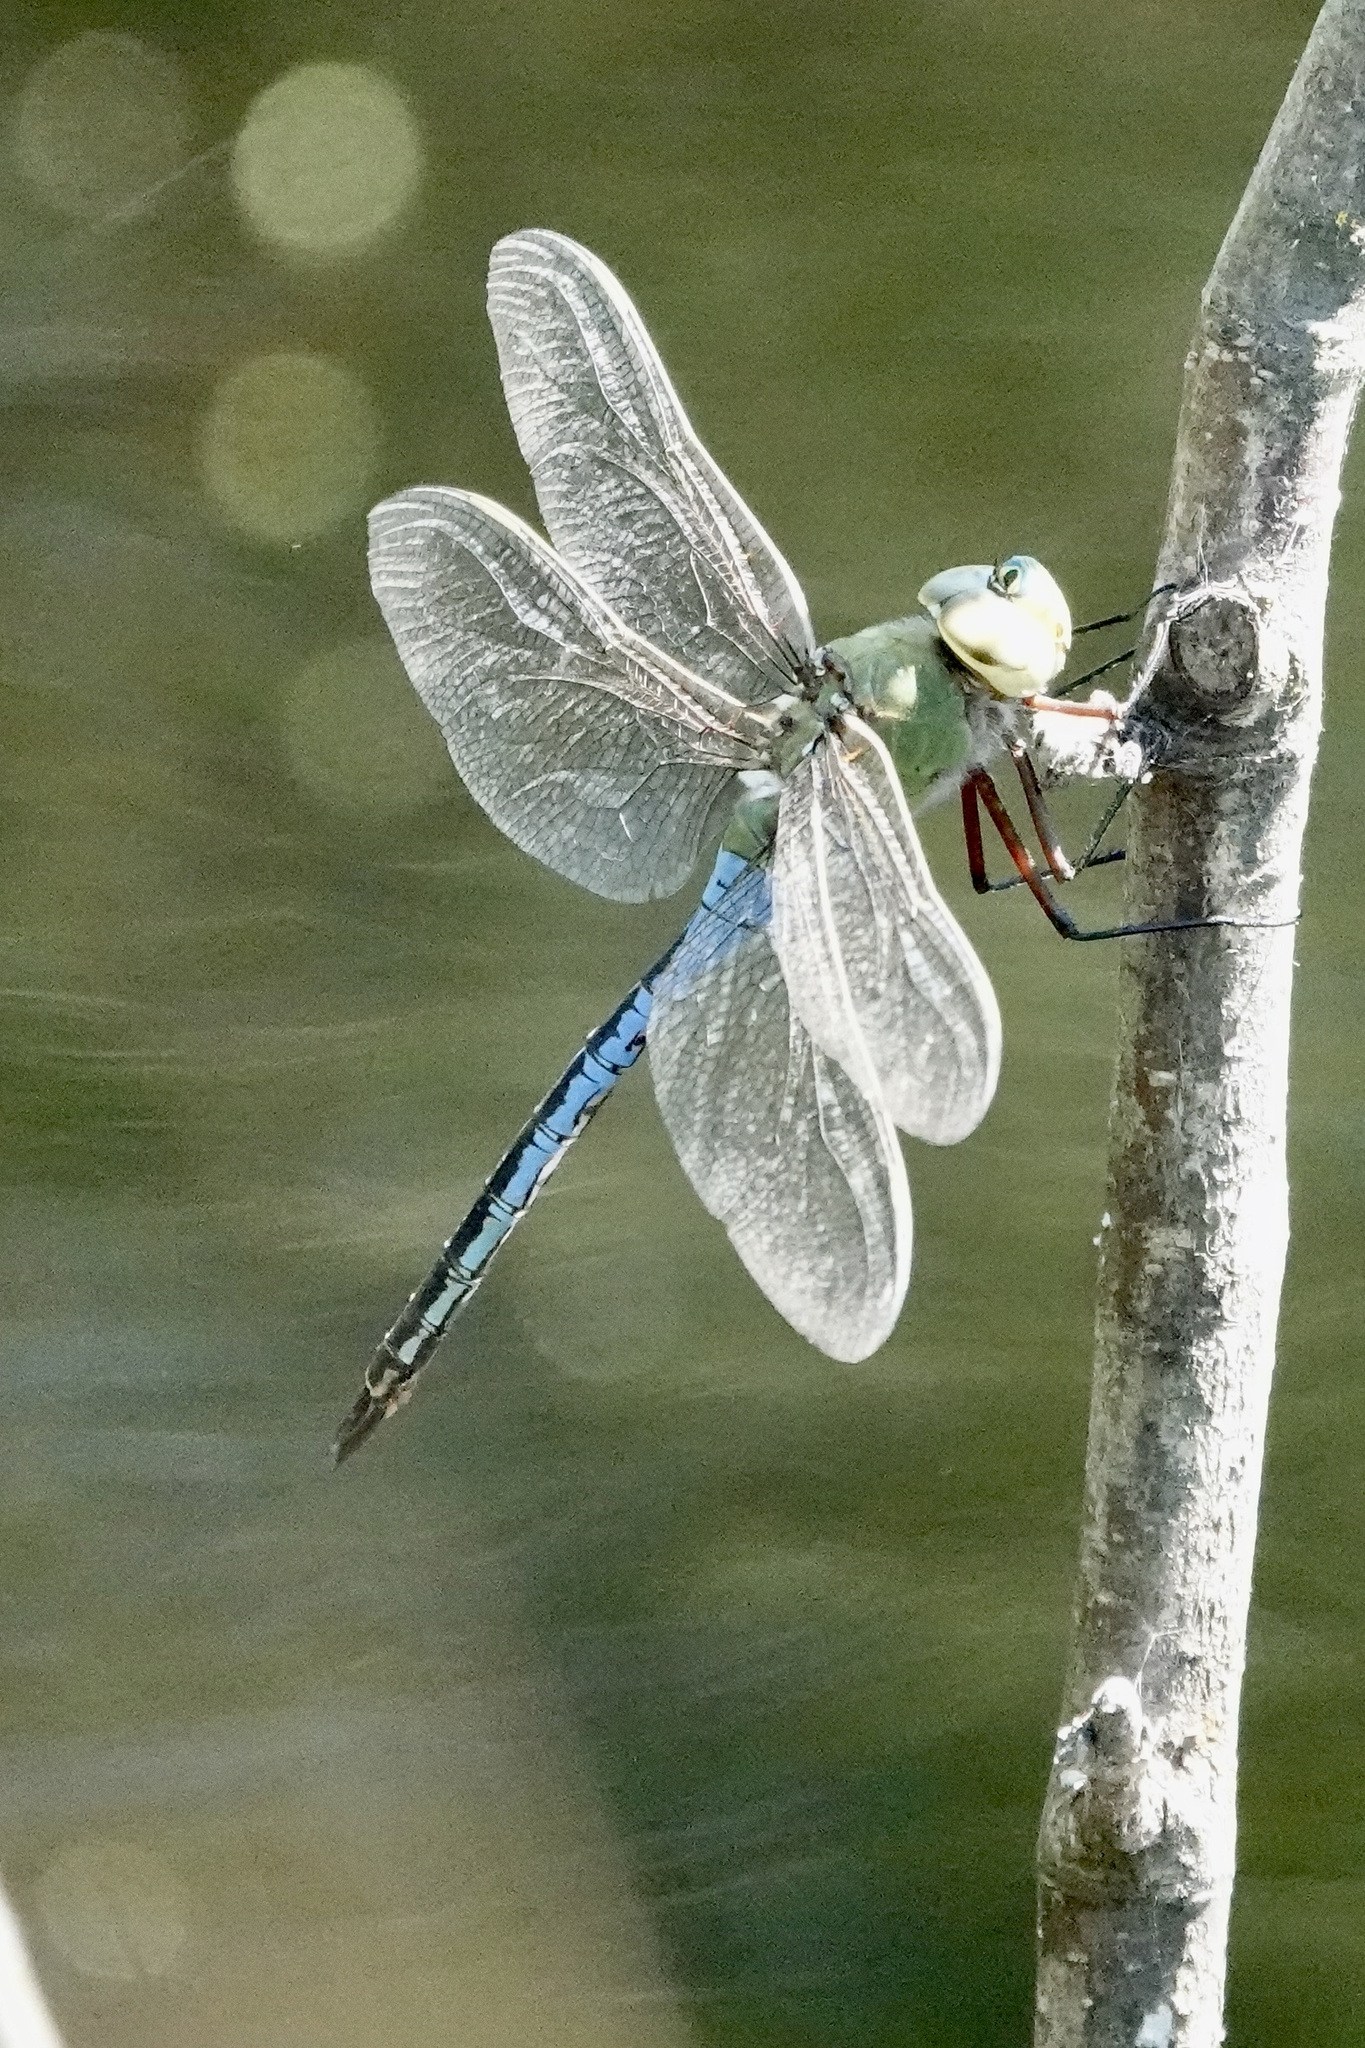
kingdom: Animalia
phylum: Arthropoda
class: Insecta
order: Odonata
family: Aeshnidae
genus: Anax
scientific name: Anax junius
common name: Common green darner
